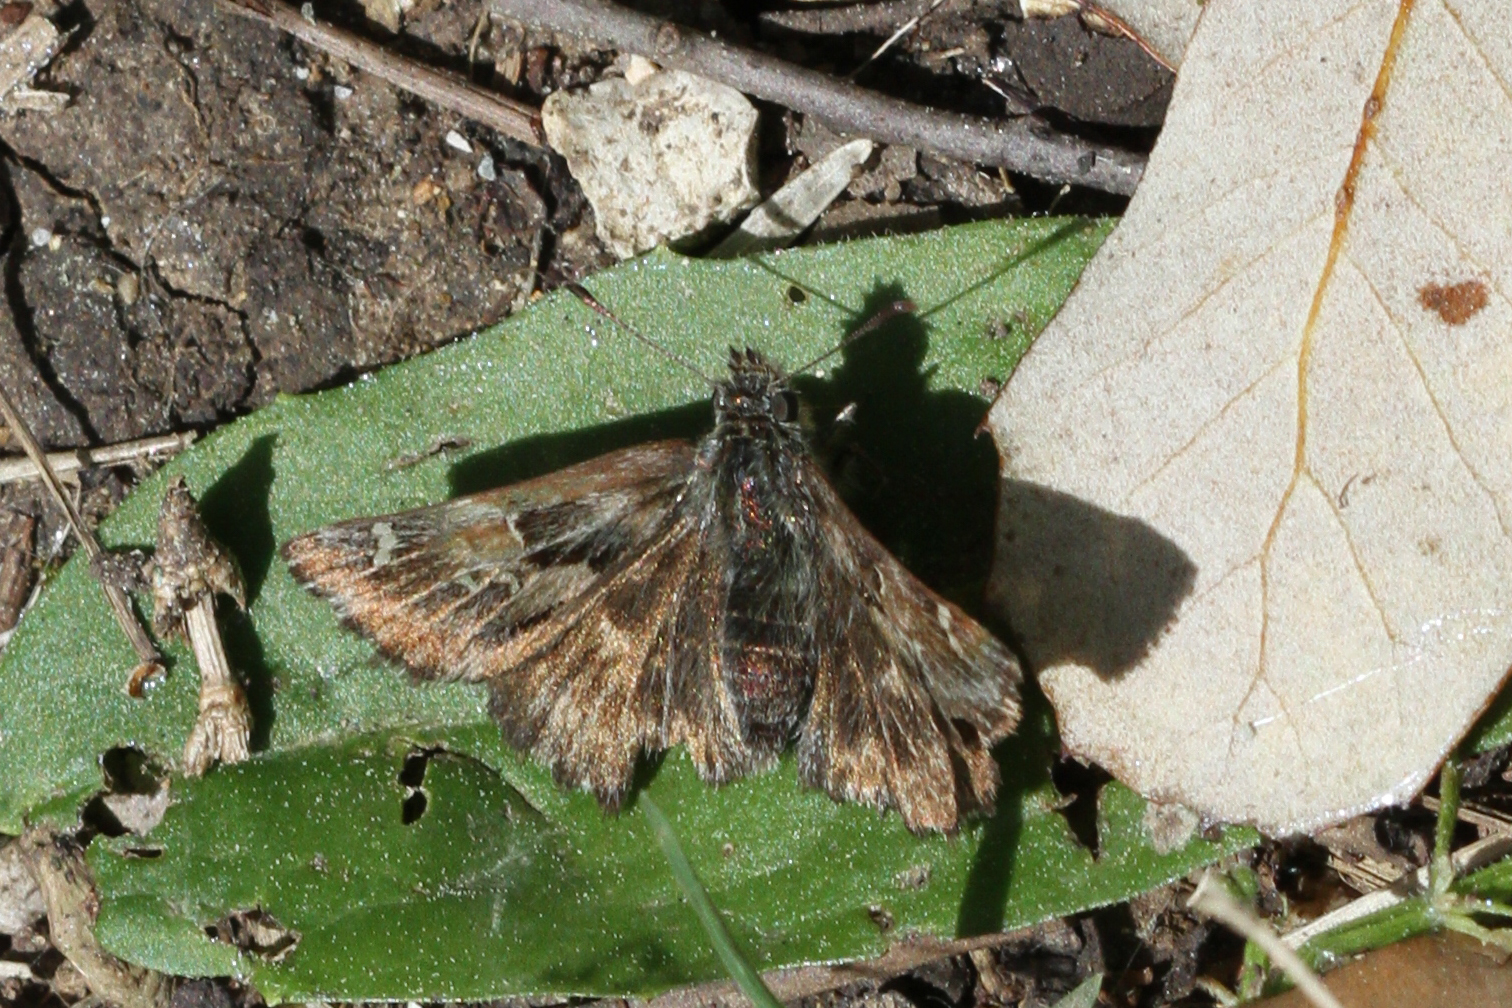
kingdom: Animalia
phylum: Arthropoda
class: Insecta
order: Lepidoptera
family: Hesperiidae
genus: Carcharodus
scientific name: Carcharodus alceae
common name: Mallow skipper
